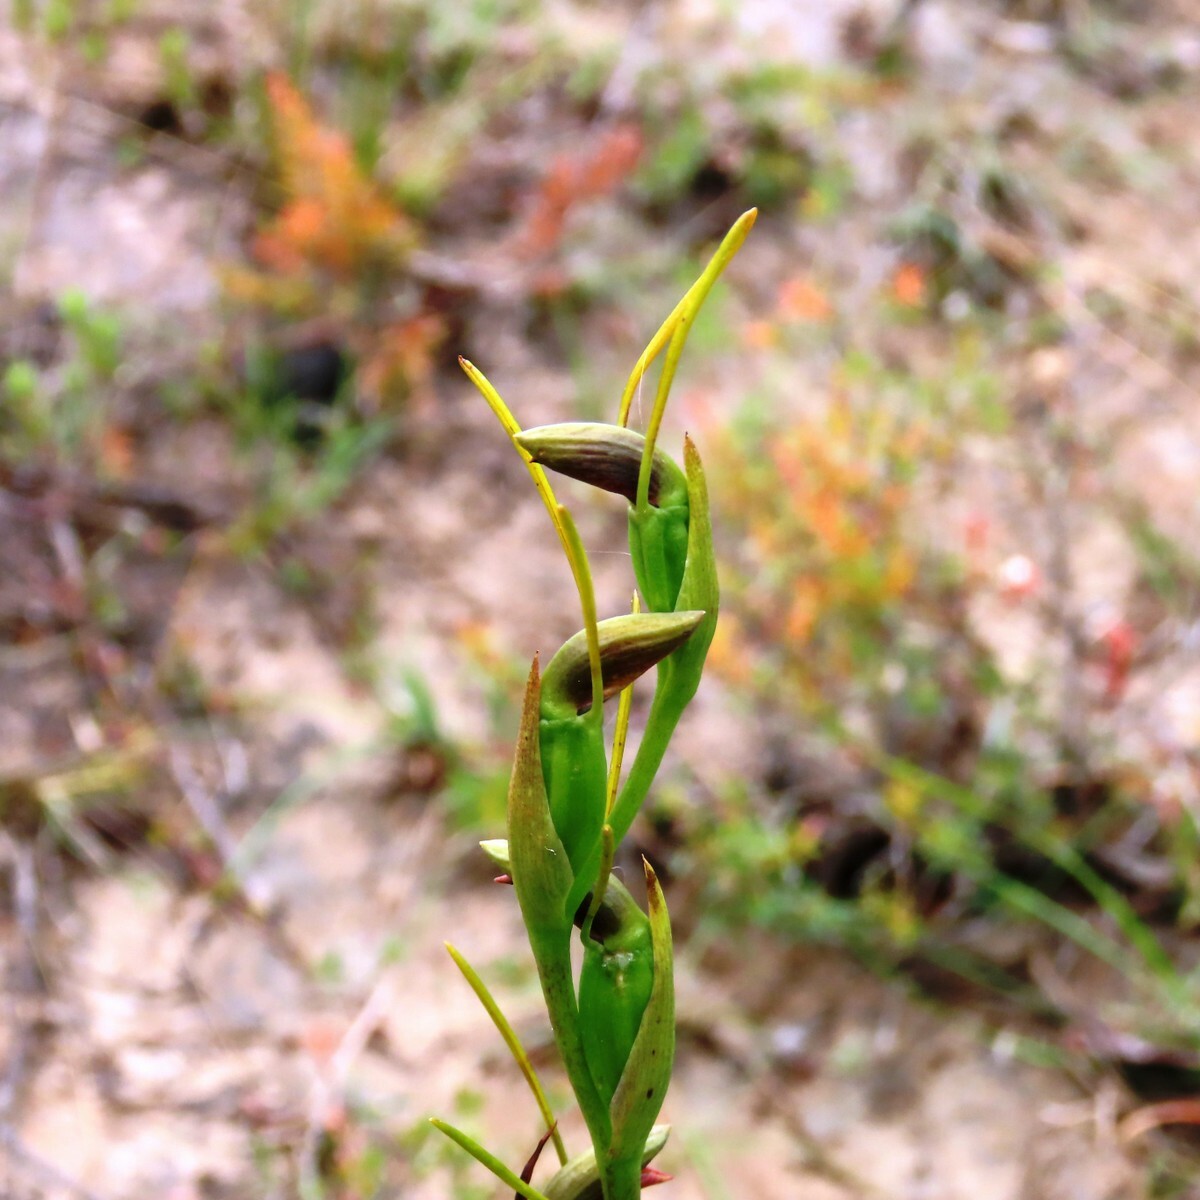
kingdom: Plantae
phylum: Tracheophyta
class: Liliopsida
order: Asparagales
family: Orchidaceae
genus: Orthoceras
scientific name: Orthoceras strictum
